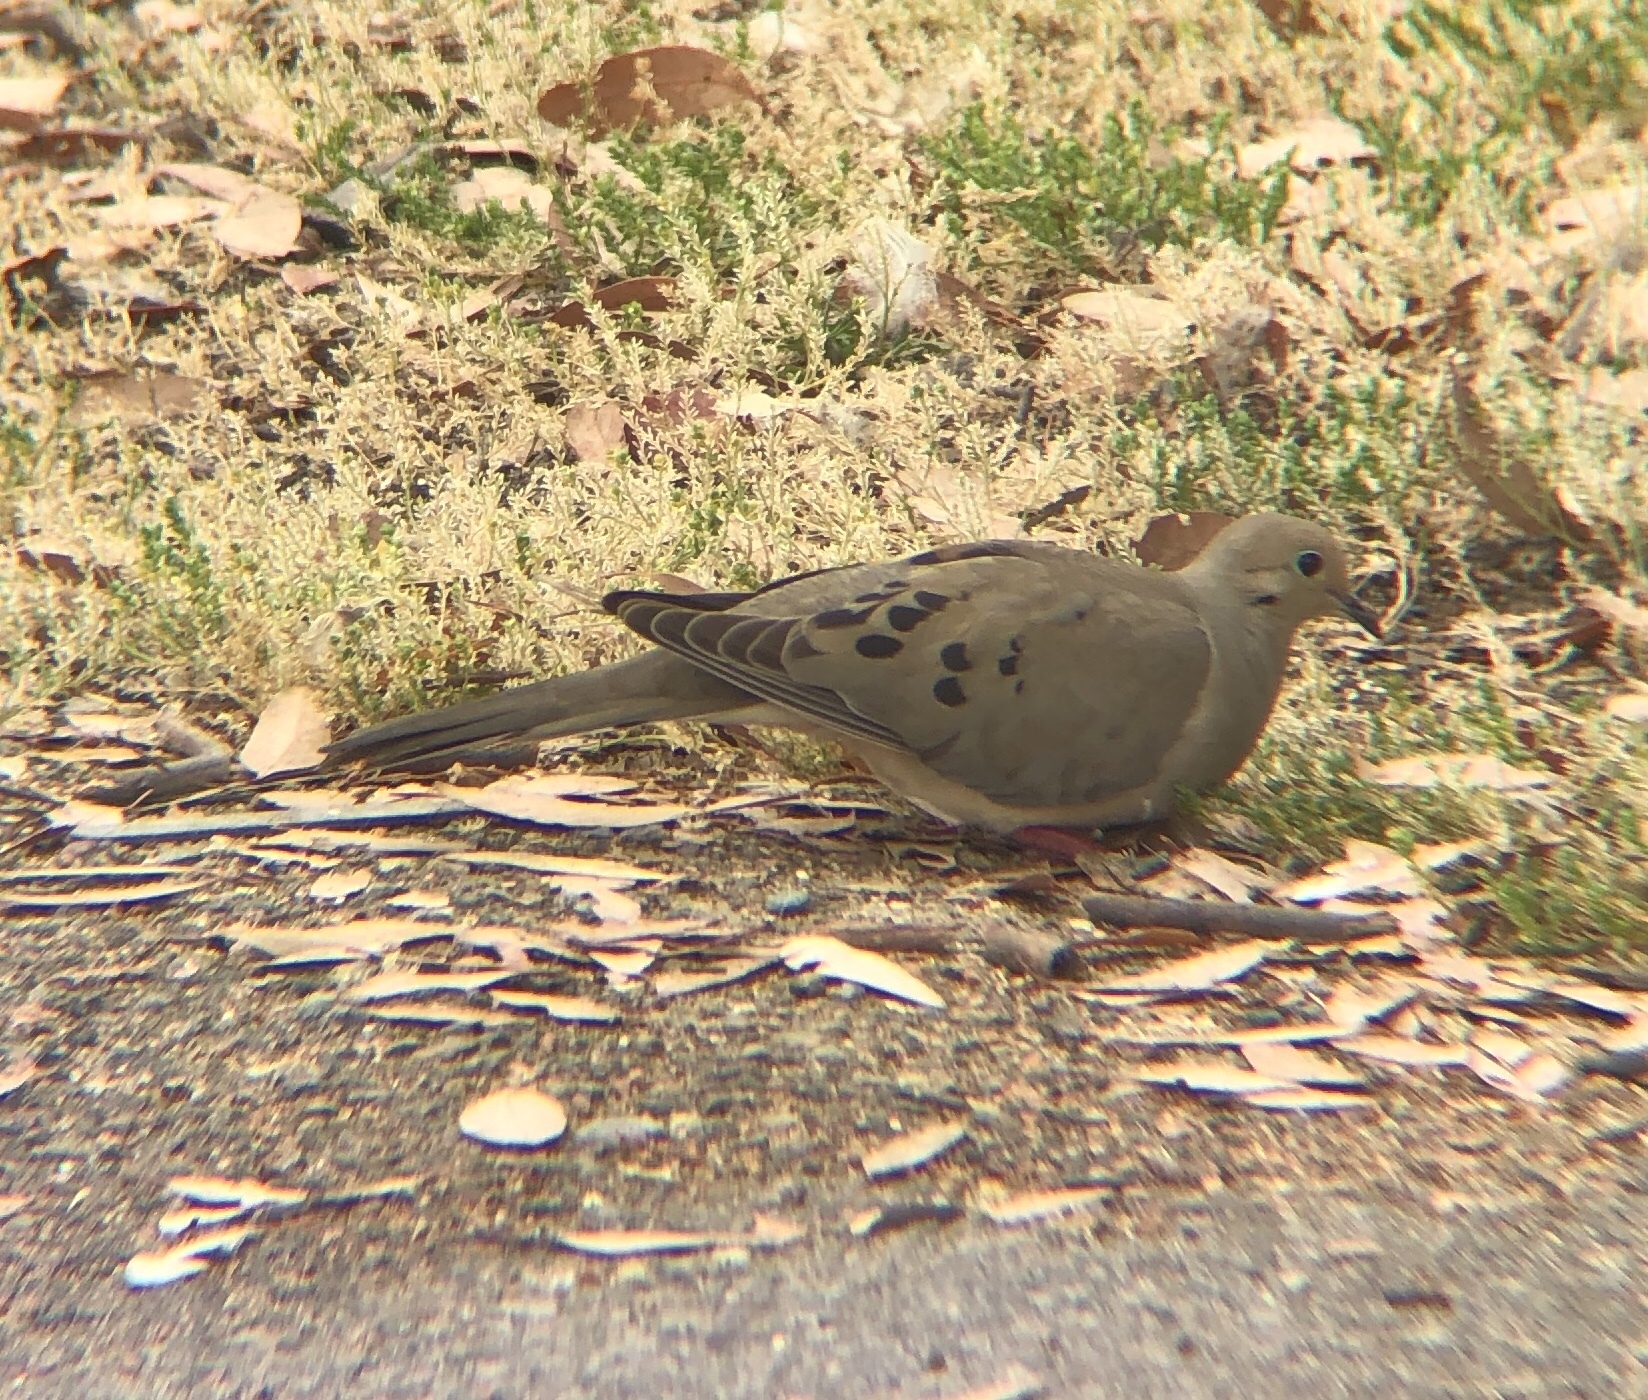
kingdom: Animalia
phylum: Chordata
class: Aves
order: Columbiformes
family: Columbidae
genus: Zenaida
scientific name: Zenaida macroura
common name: Mourning dove
